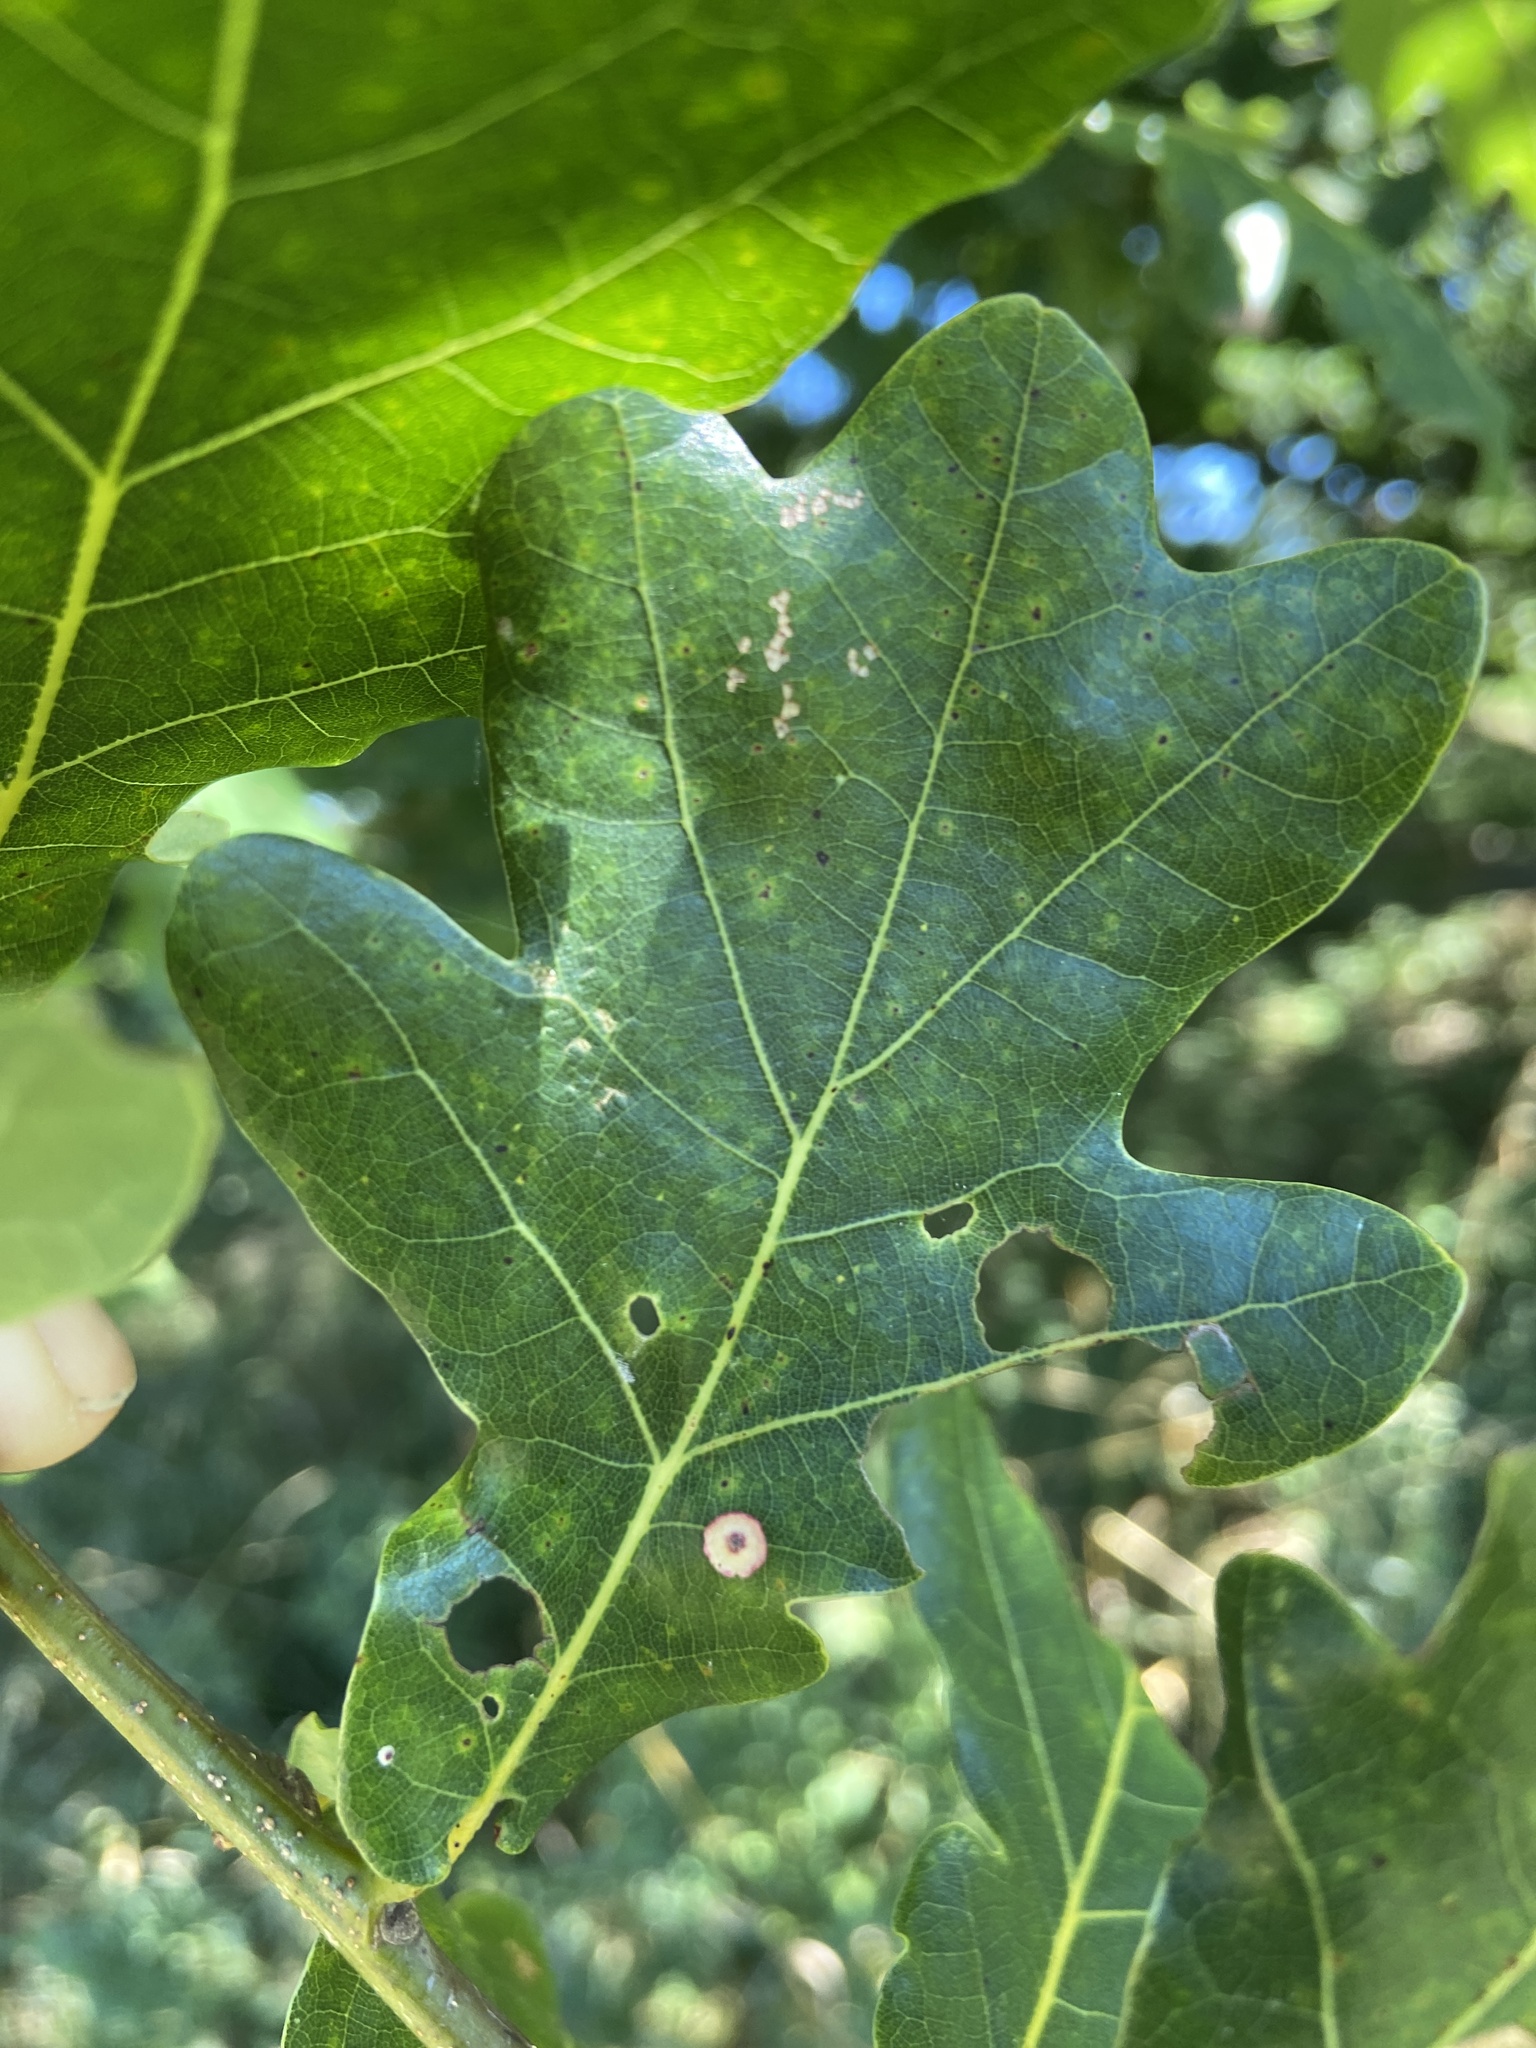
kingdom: Animalia
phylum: Arthropoda
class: Insecta
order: Hymenoptera
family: Cynipidae
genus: Neuroterus
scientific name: Neuroterus anthracinus
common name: Oyster gall
